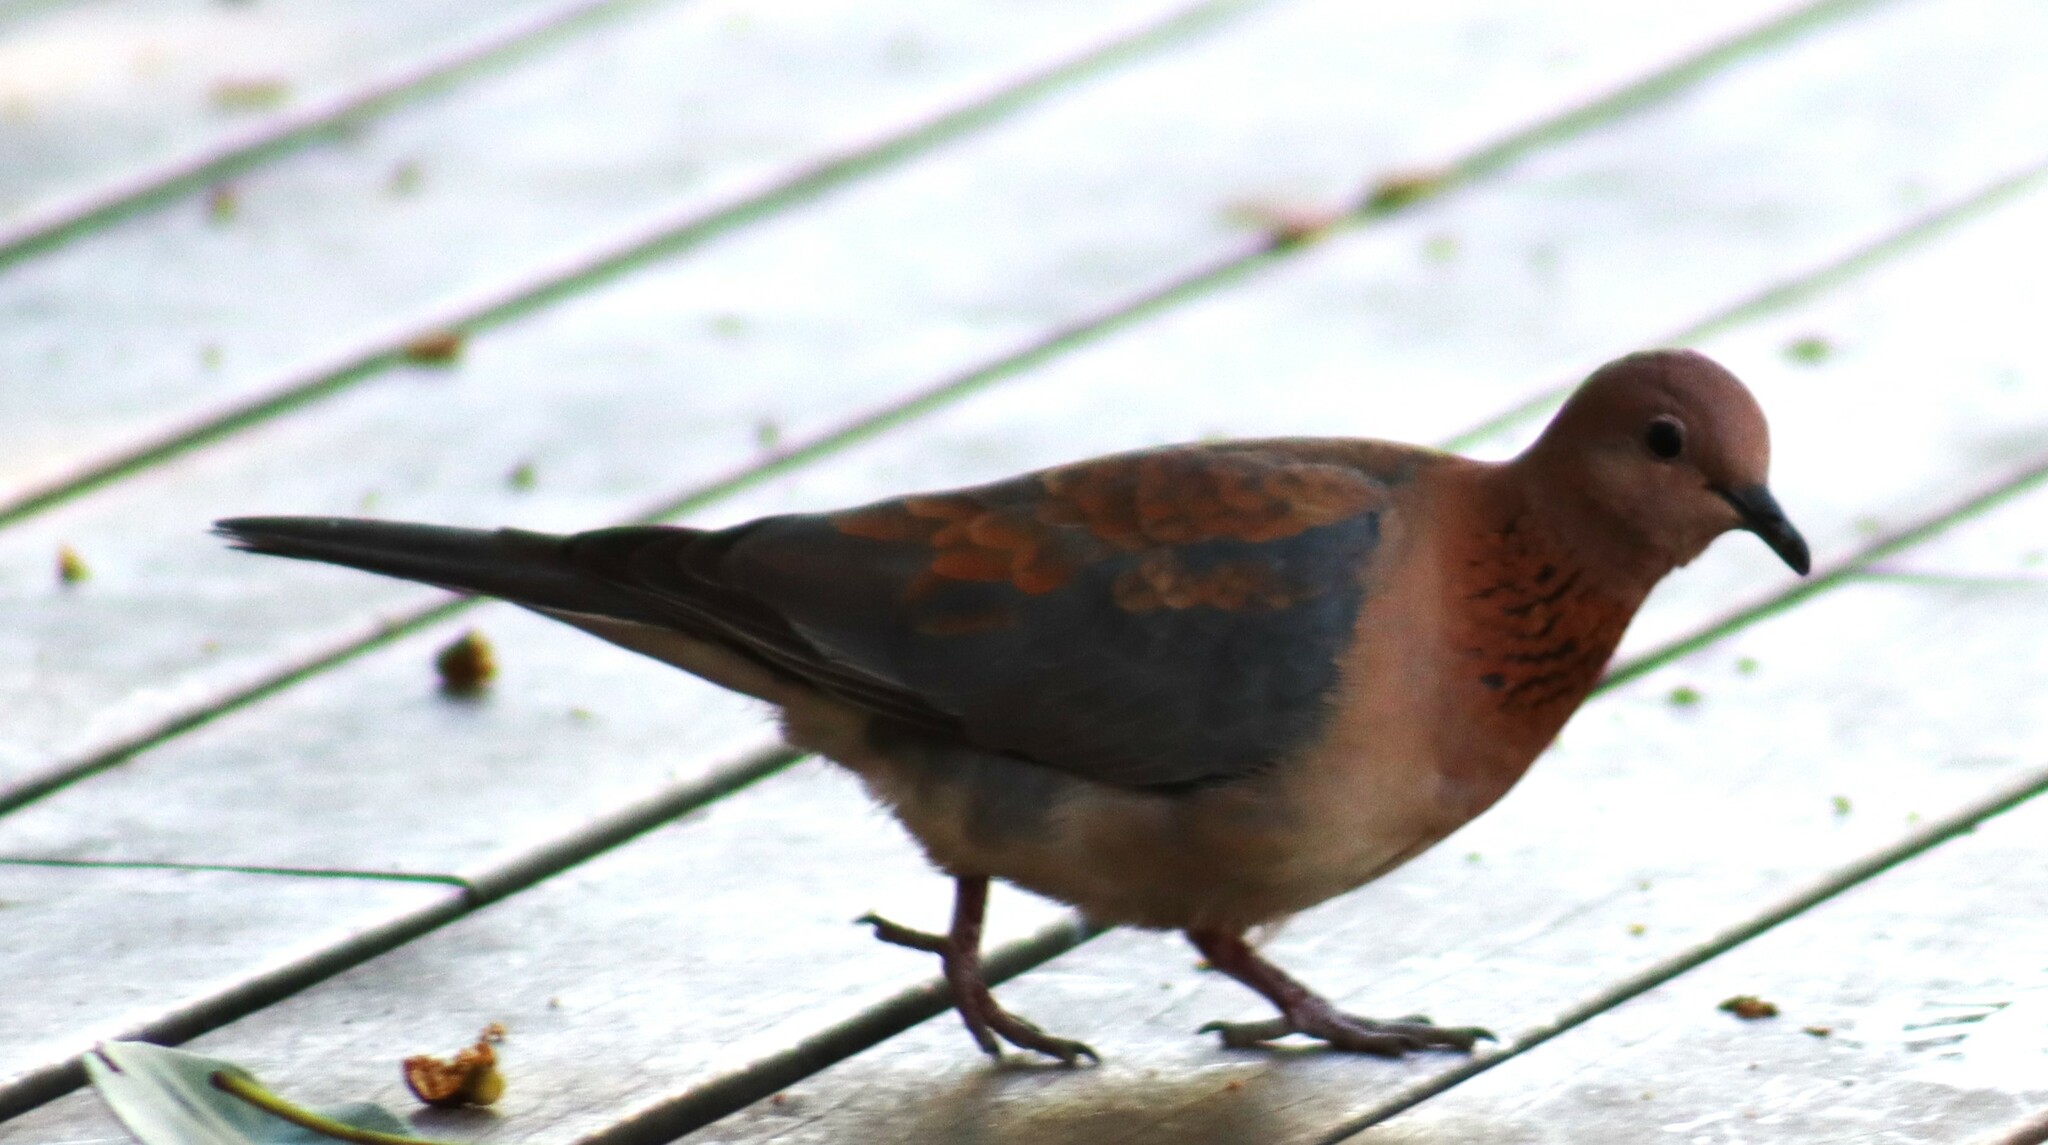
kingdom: Animalia
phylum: Chordata
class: Aves
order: Columbiformes
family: Columbidae
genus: Spilopelia
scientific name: Spilopelia senegalensis
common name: Laughing dove
